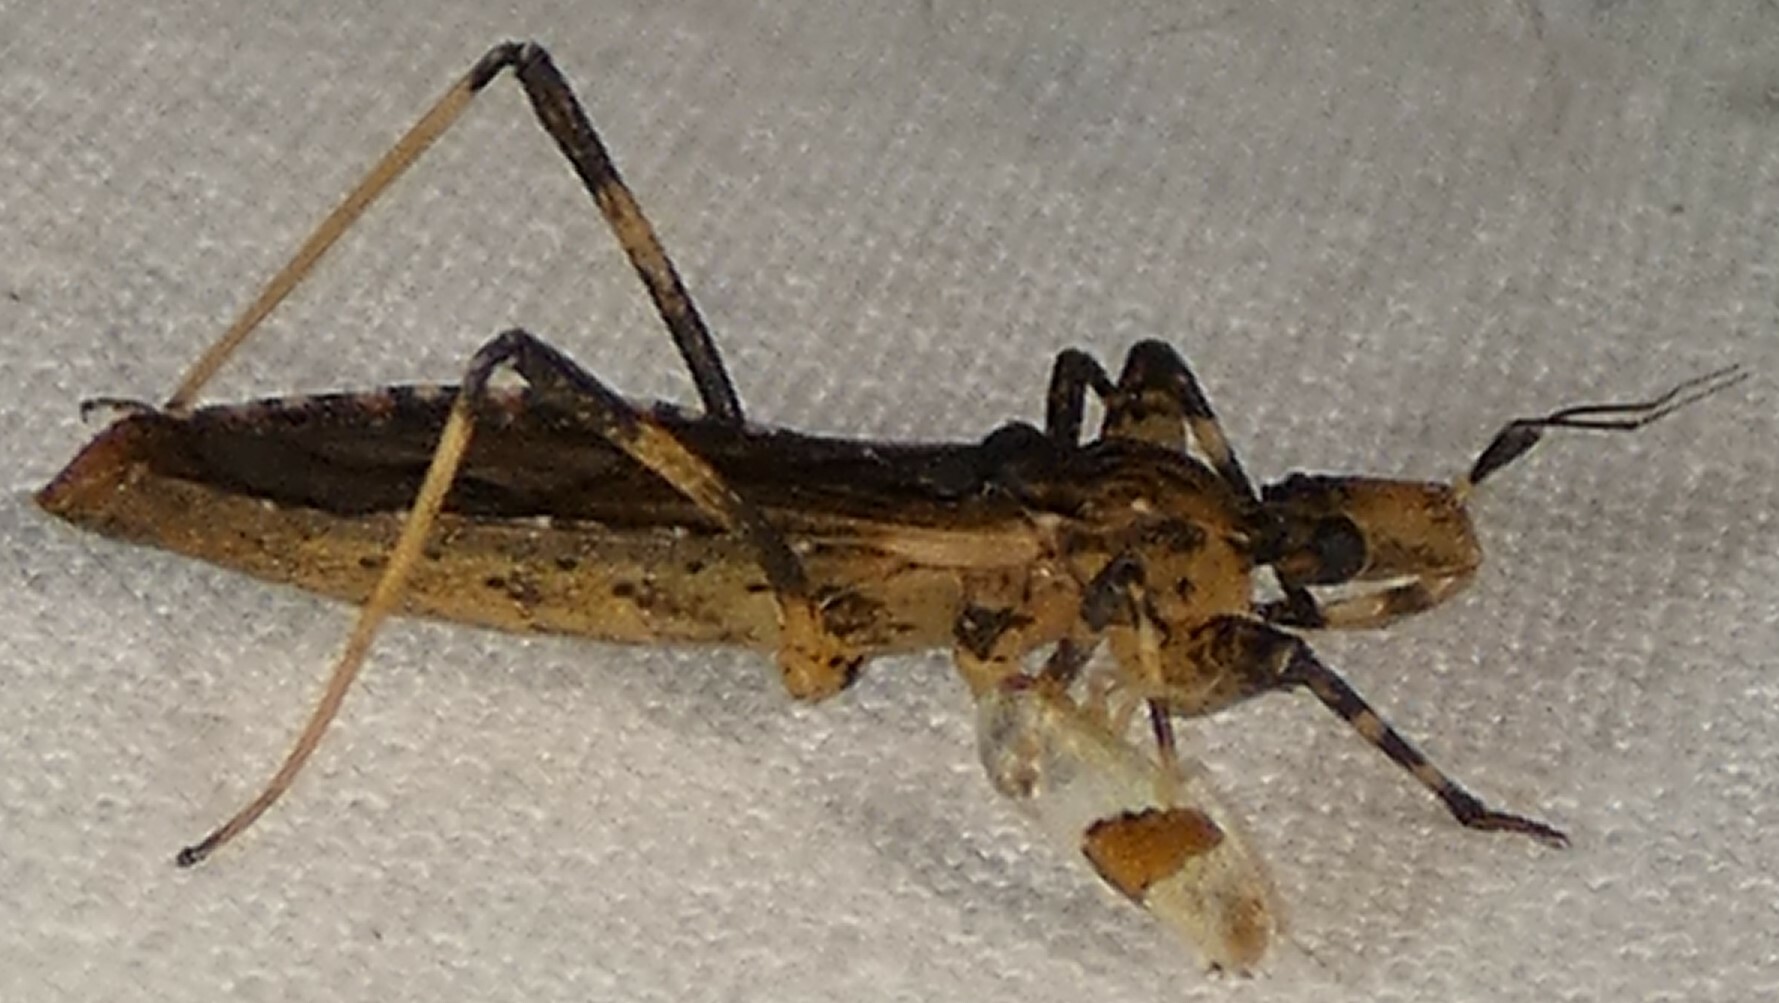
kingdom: Animalia
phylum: Arthropoda
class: Insecta
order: Hemiptera
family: Reduviidae
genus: Oncocephalus
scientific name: Oncocephalus geniculatus
